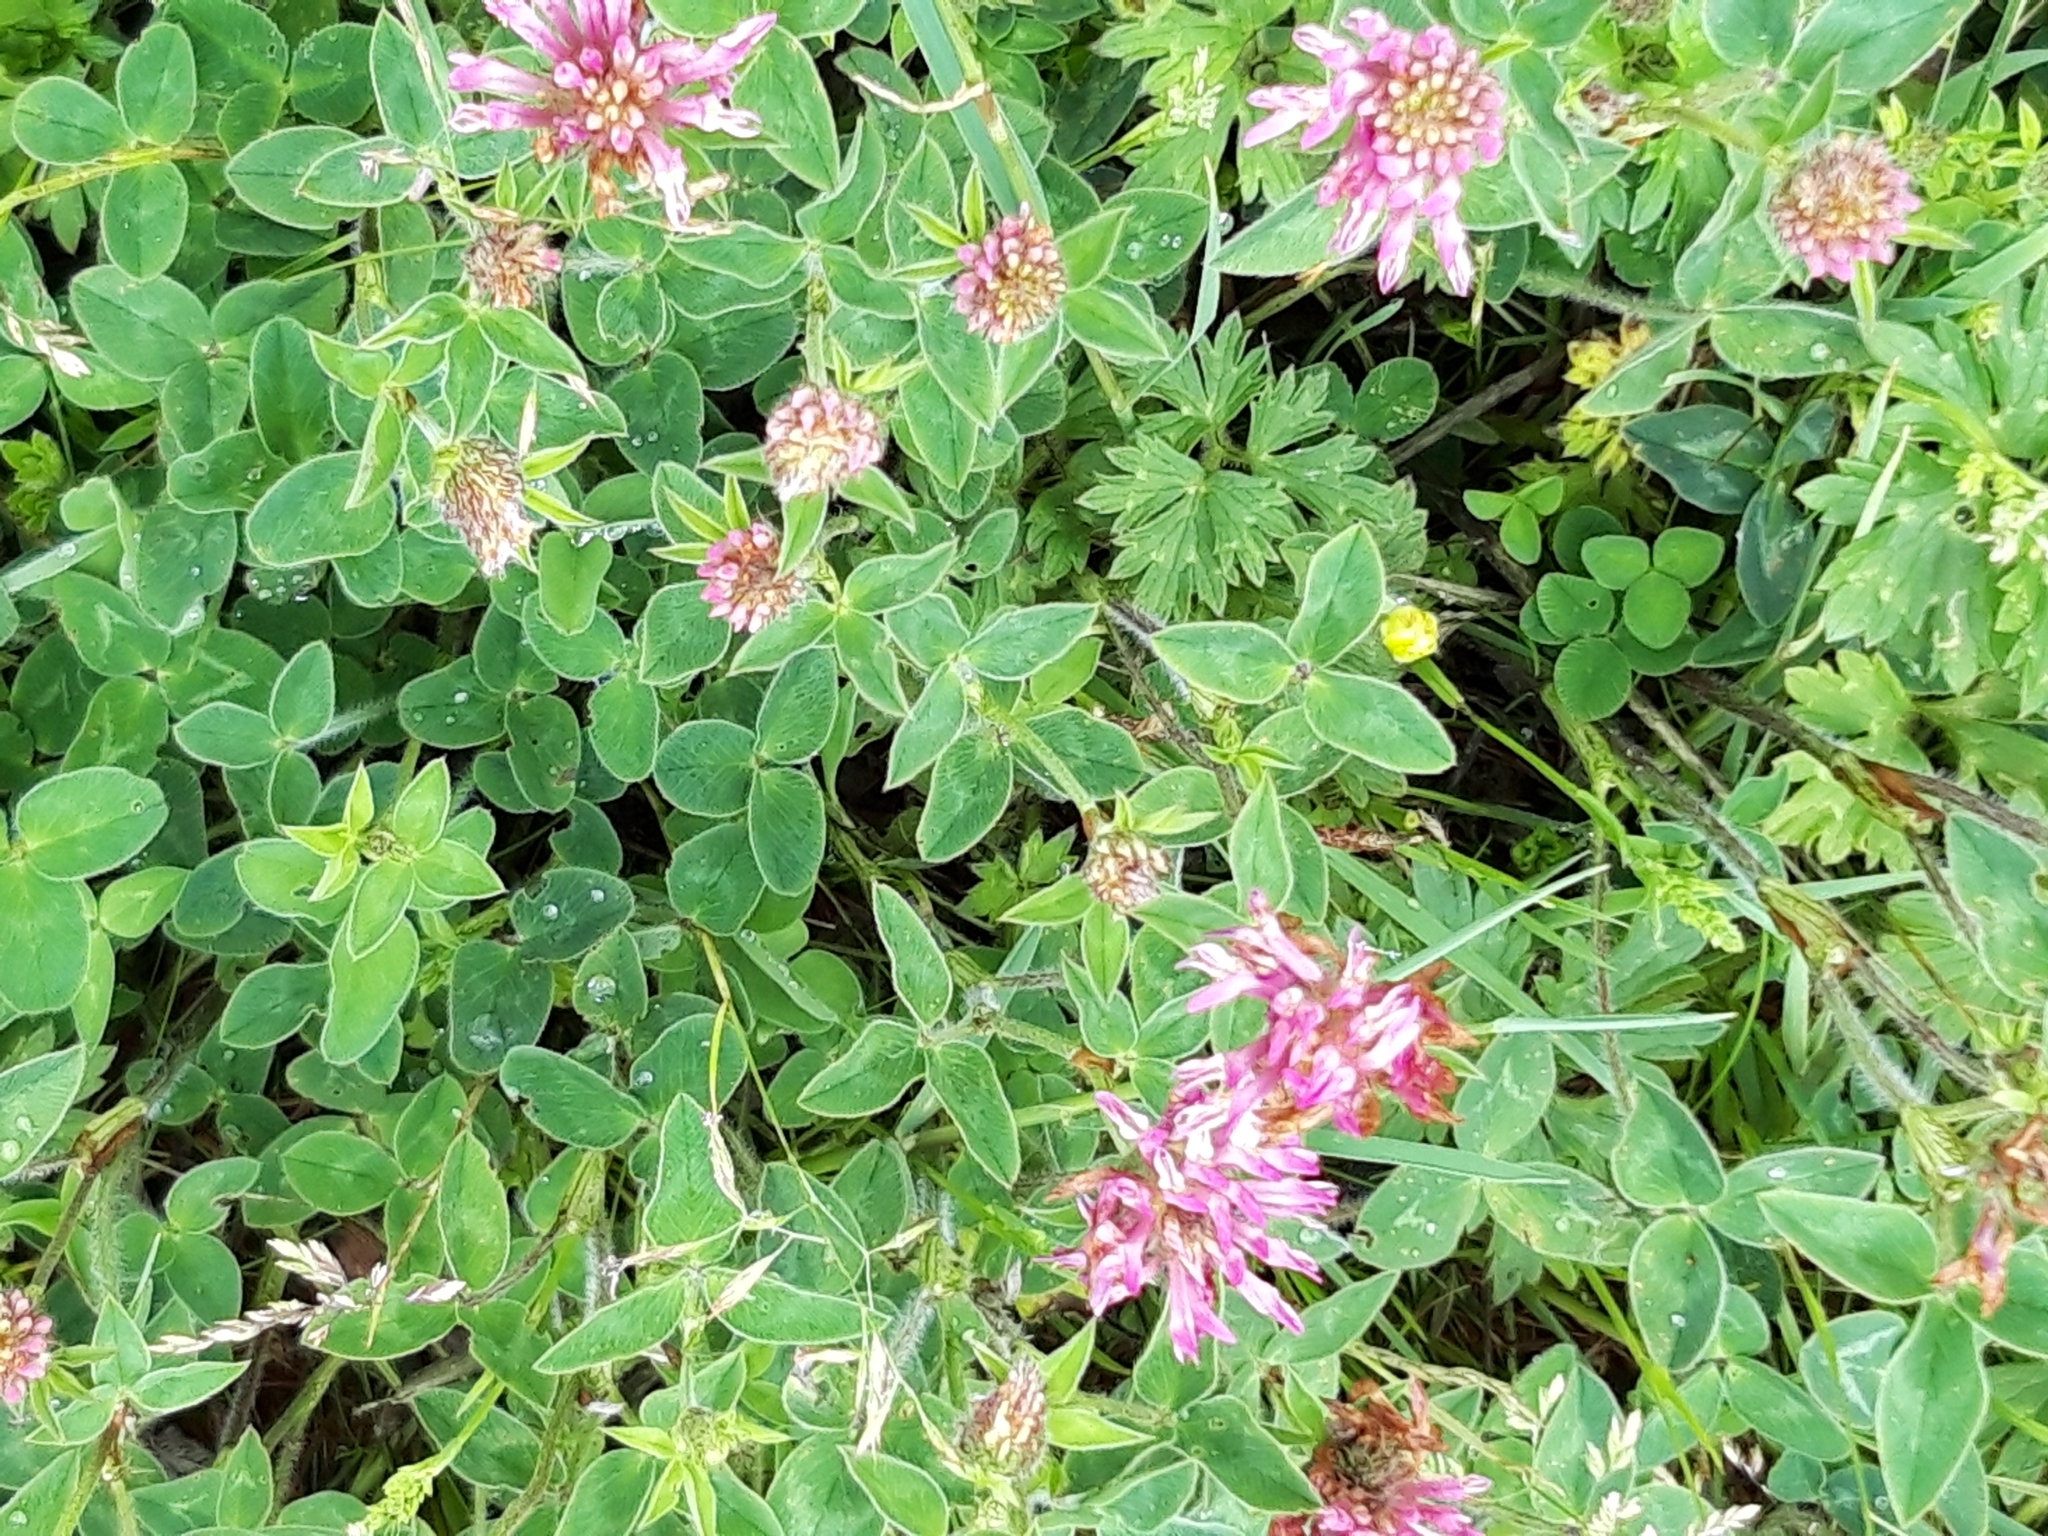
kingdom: Plantae
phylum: Tracheophyta
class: Magnoliopsida
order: Fabales
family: Fabaceae
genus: Trifolium
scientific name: Trifolium pratense
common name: Red clover
